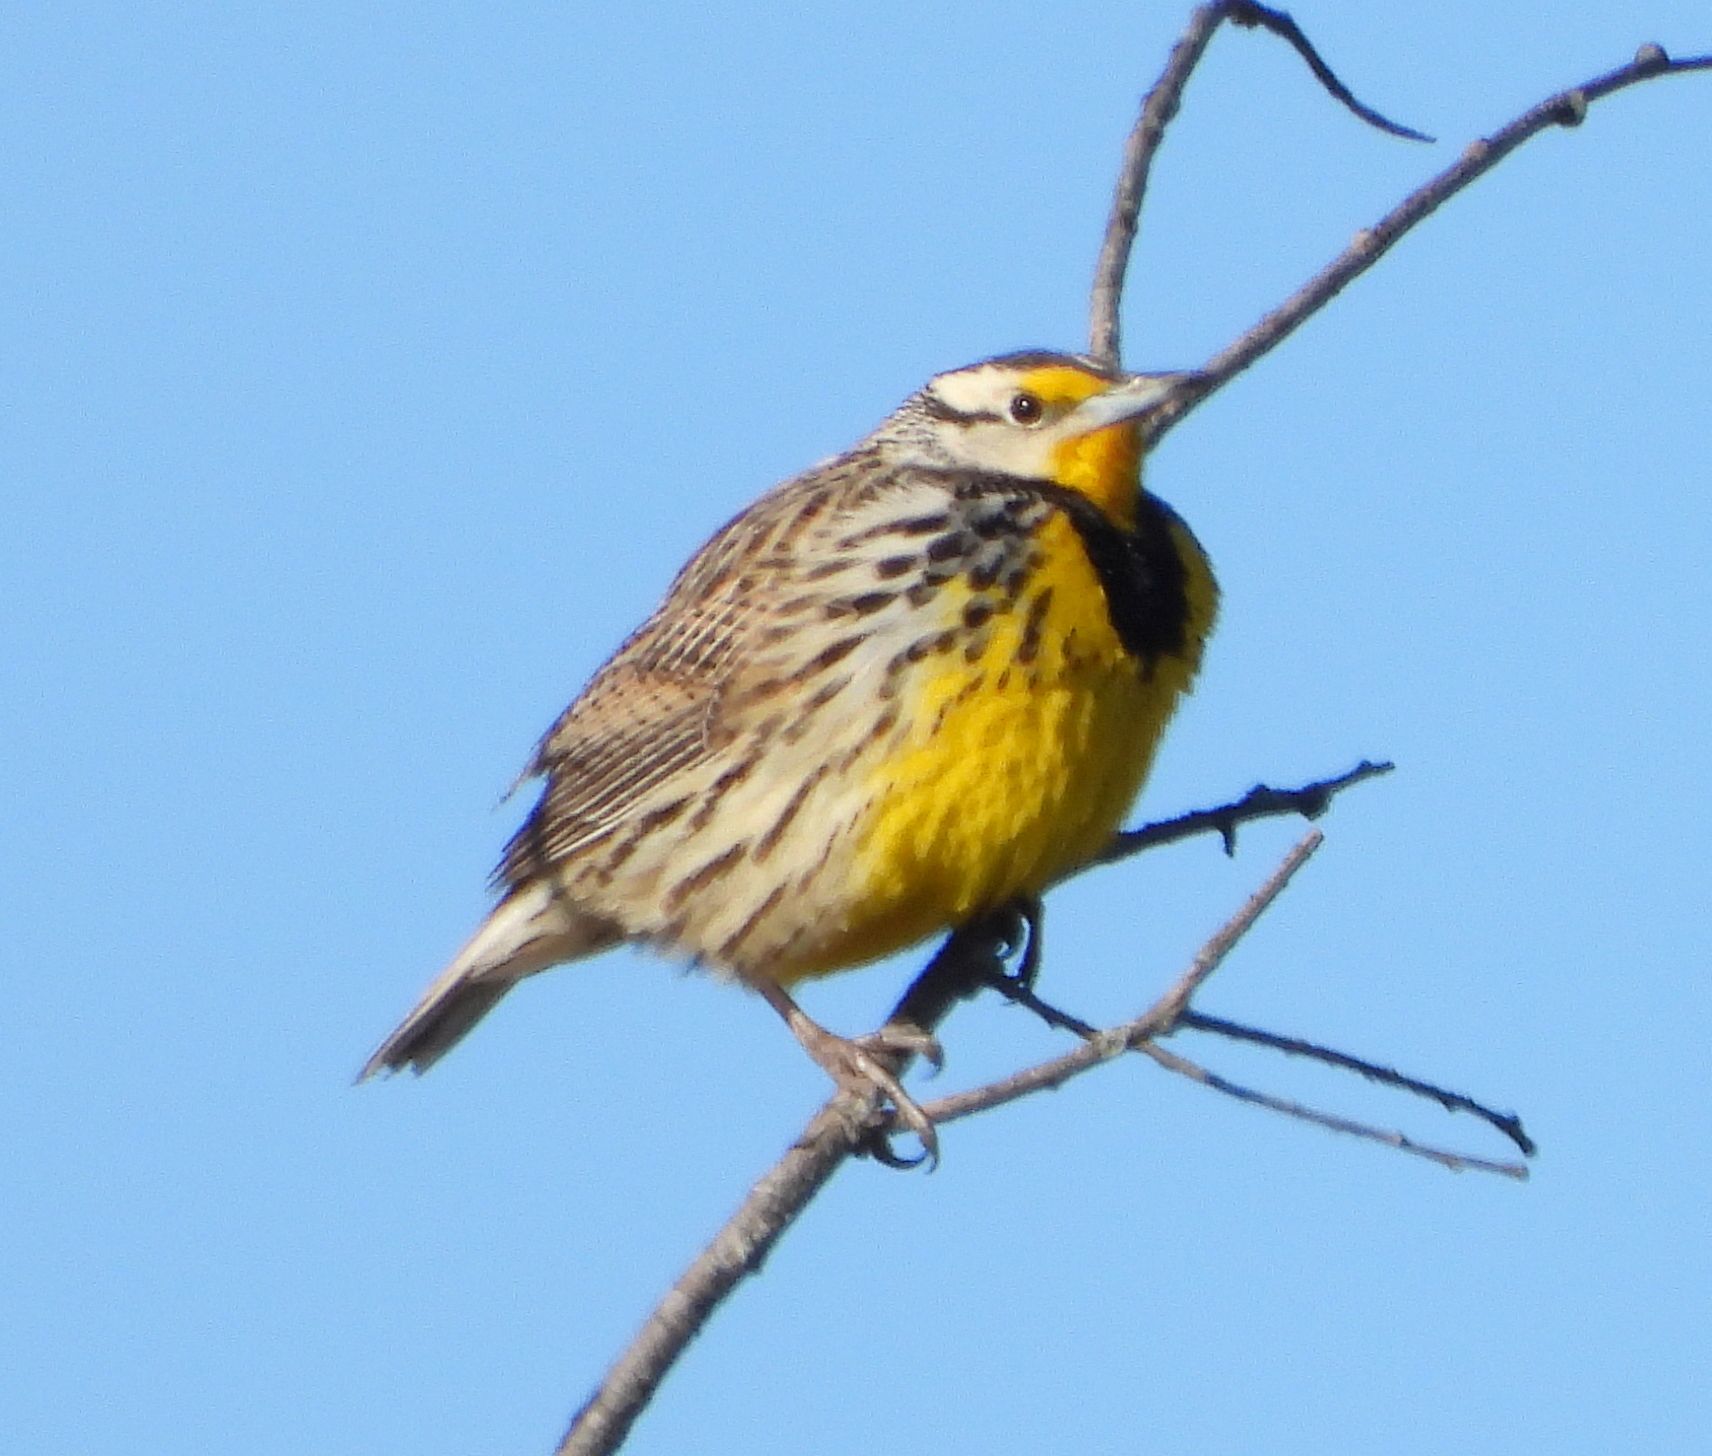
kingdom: Animalia
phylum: Chordata
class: Aves
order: Passeriformes
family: Icteridae
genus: Sturnella
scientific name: Sturnella magna
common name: Eastern meadowlark
